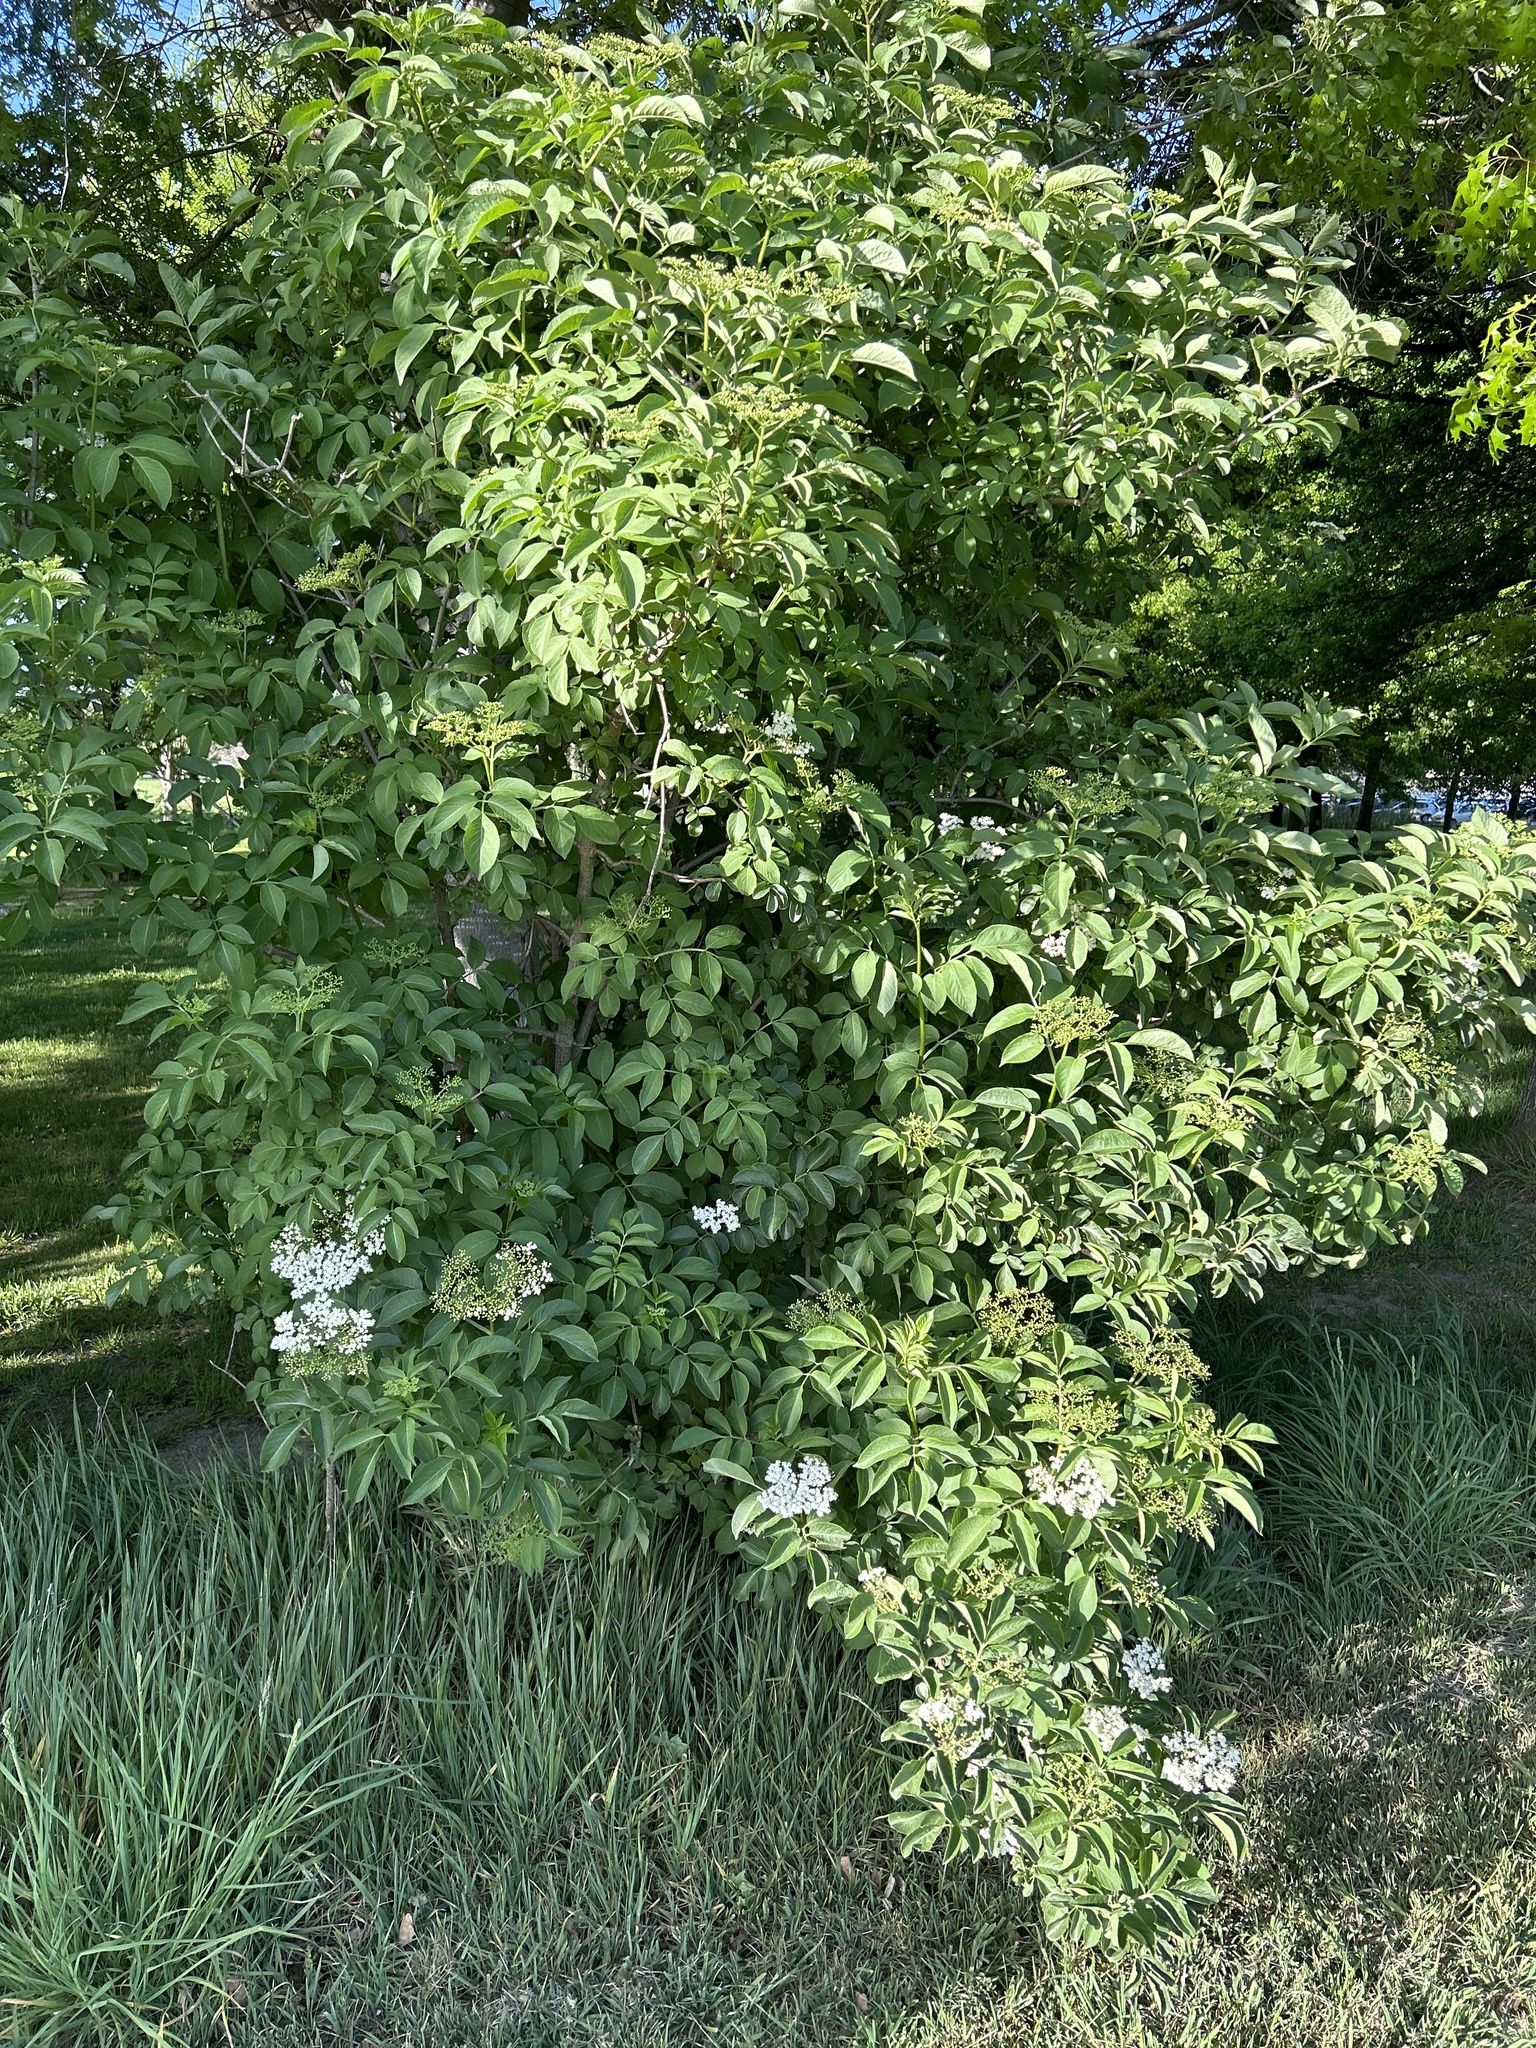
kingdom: Plantae
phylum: Tracheophyta
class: Magnoliopsida
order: Dipsacales
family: Viburnaceae
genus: Sambucus
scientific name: Sambucus nigra
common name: Elder
